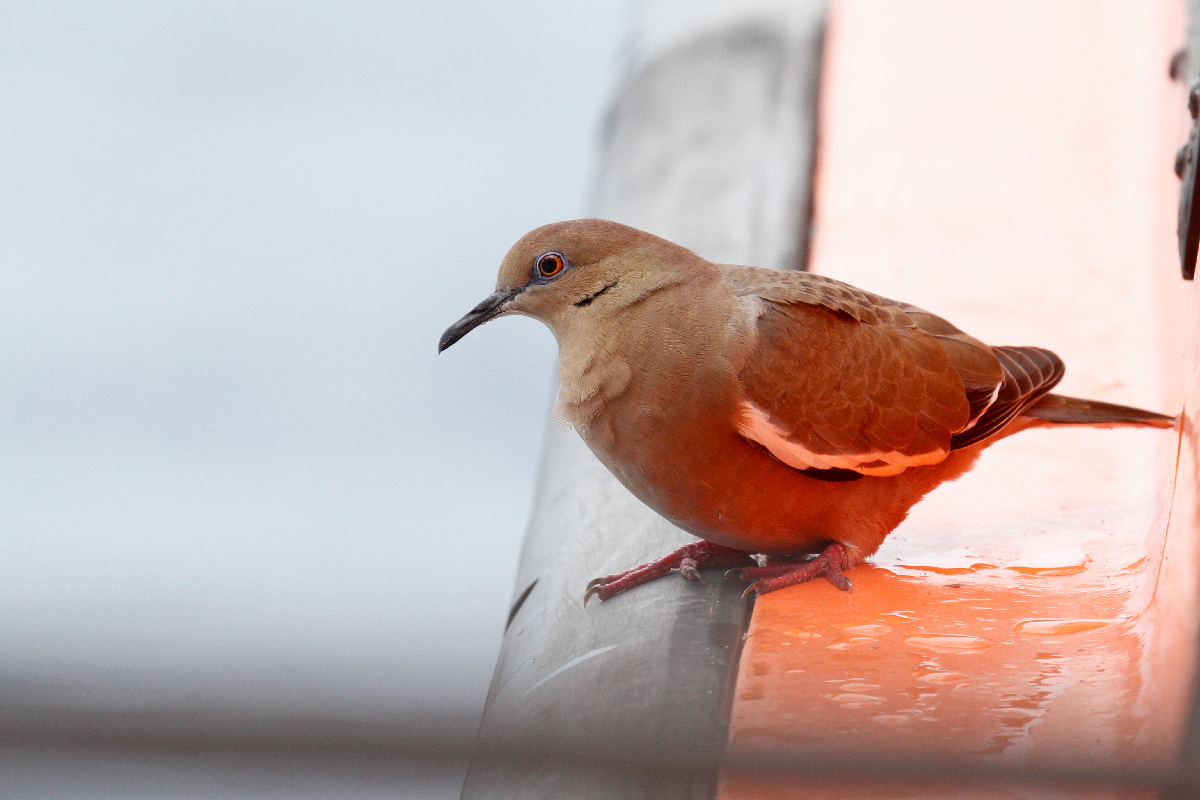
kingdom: Animalia
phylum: Chordata
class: Aves
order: Columbiformes
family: Columbidae
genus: Zenaida
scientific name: Zenaida asiatica
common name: White-winged dove
